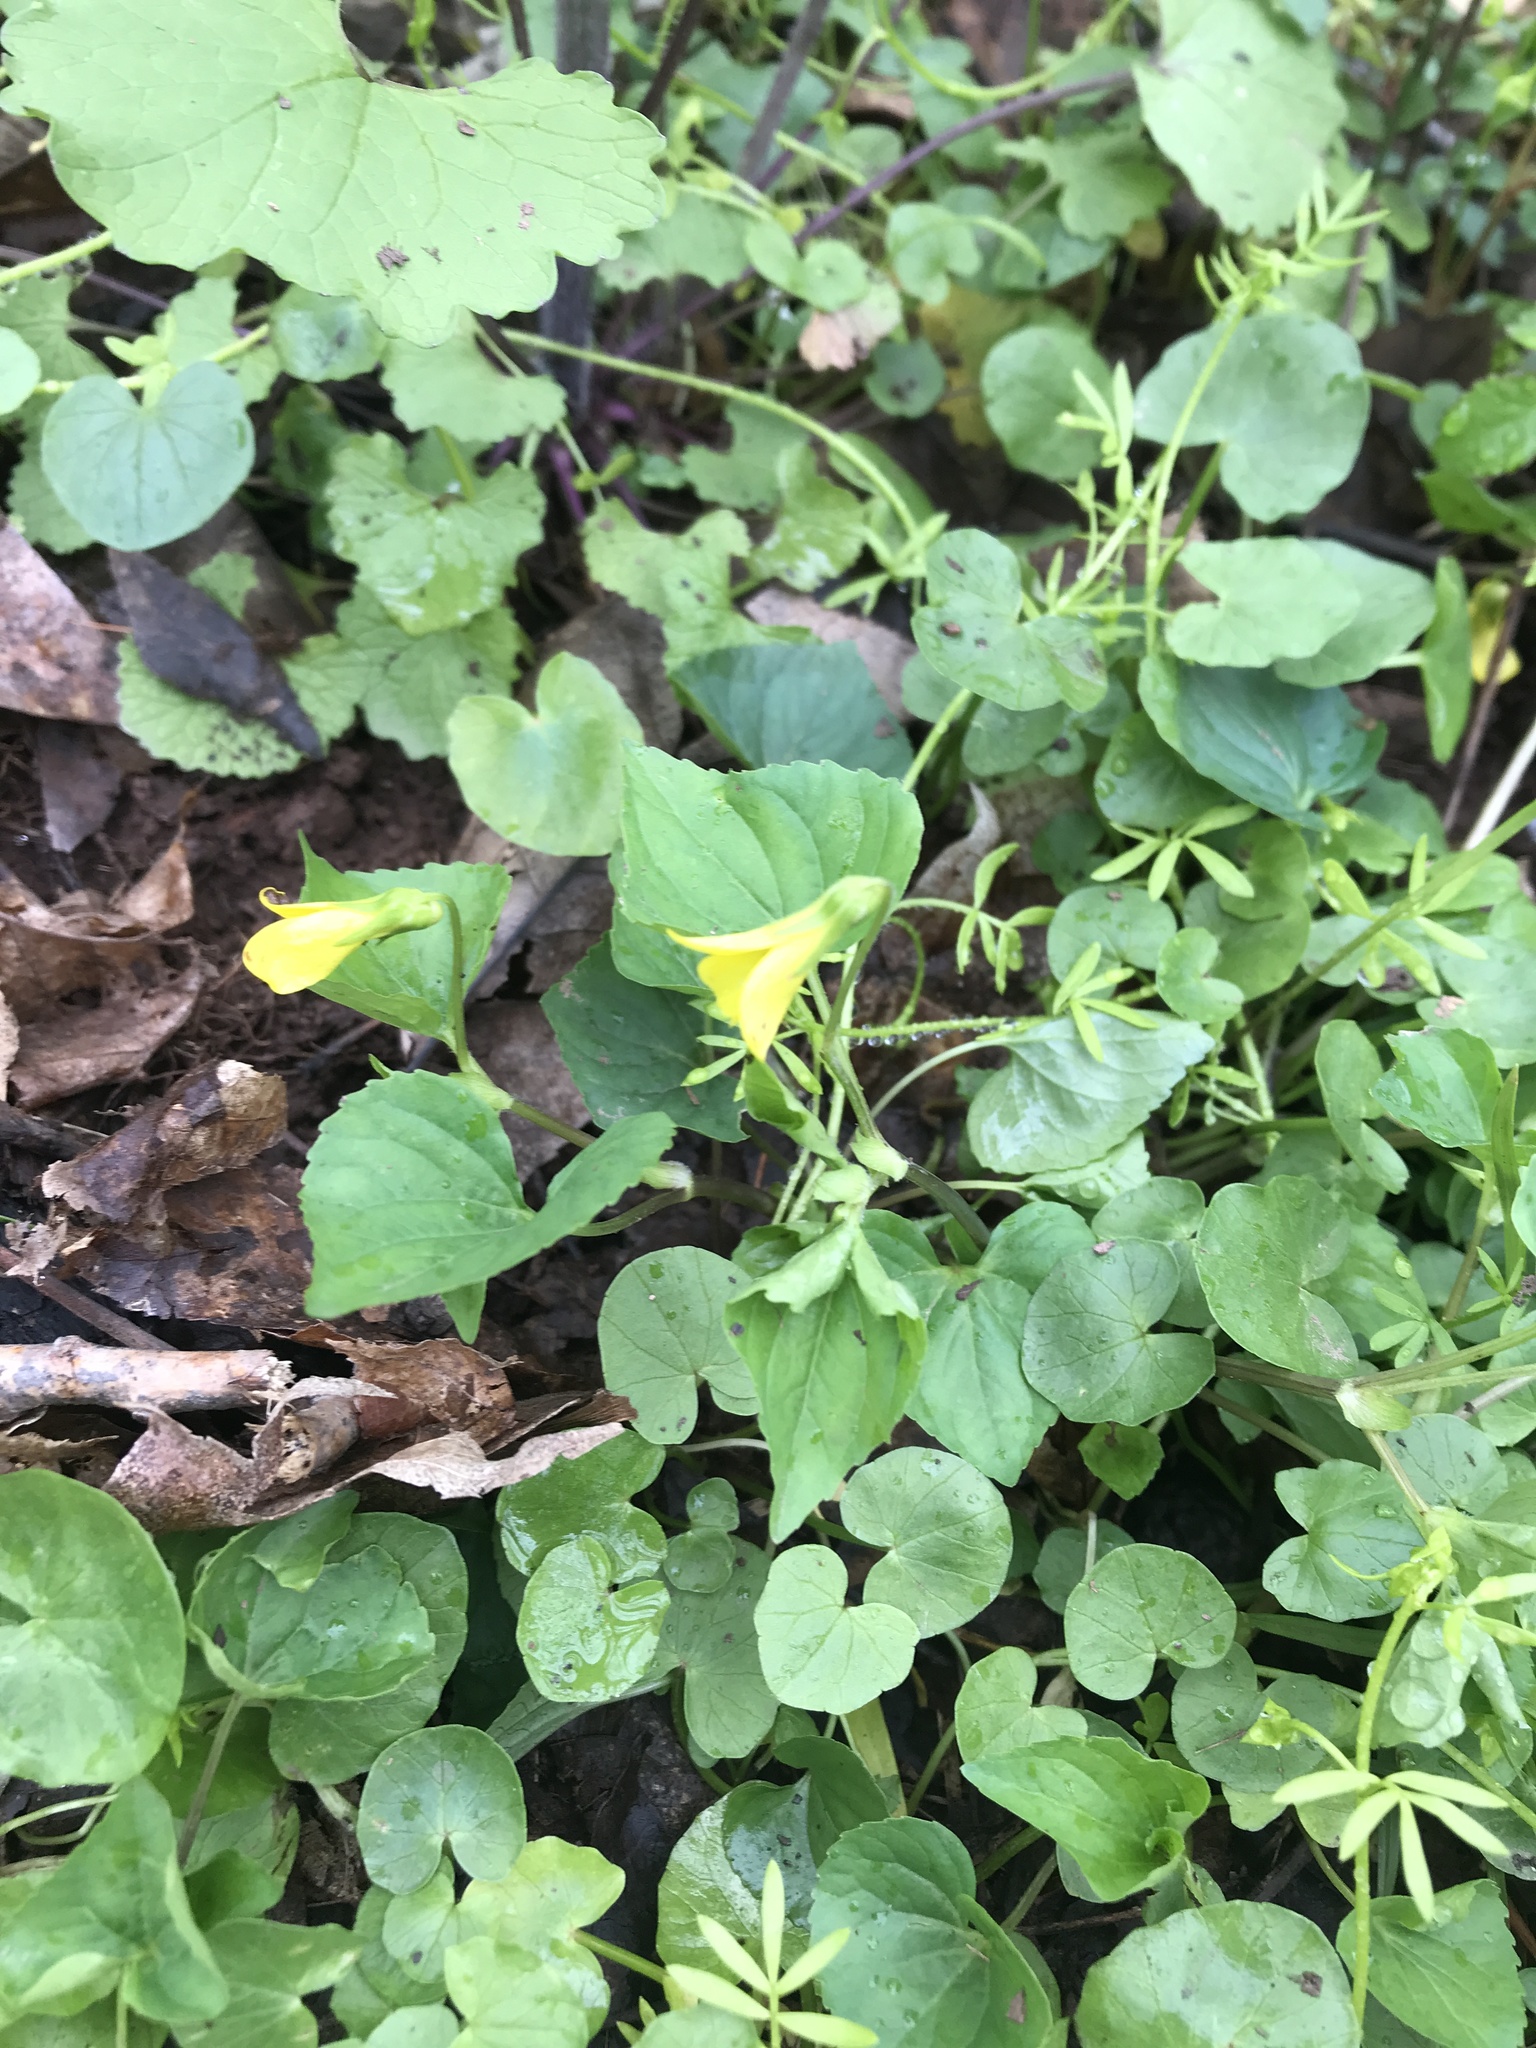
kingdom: Plantae
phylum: Tracheophyta
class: Magnoliopsida
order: Malpighiales
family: Violaceae
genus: Viola
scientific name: Viola eriocarpa
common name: Smooth yellow violet
